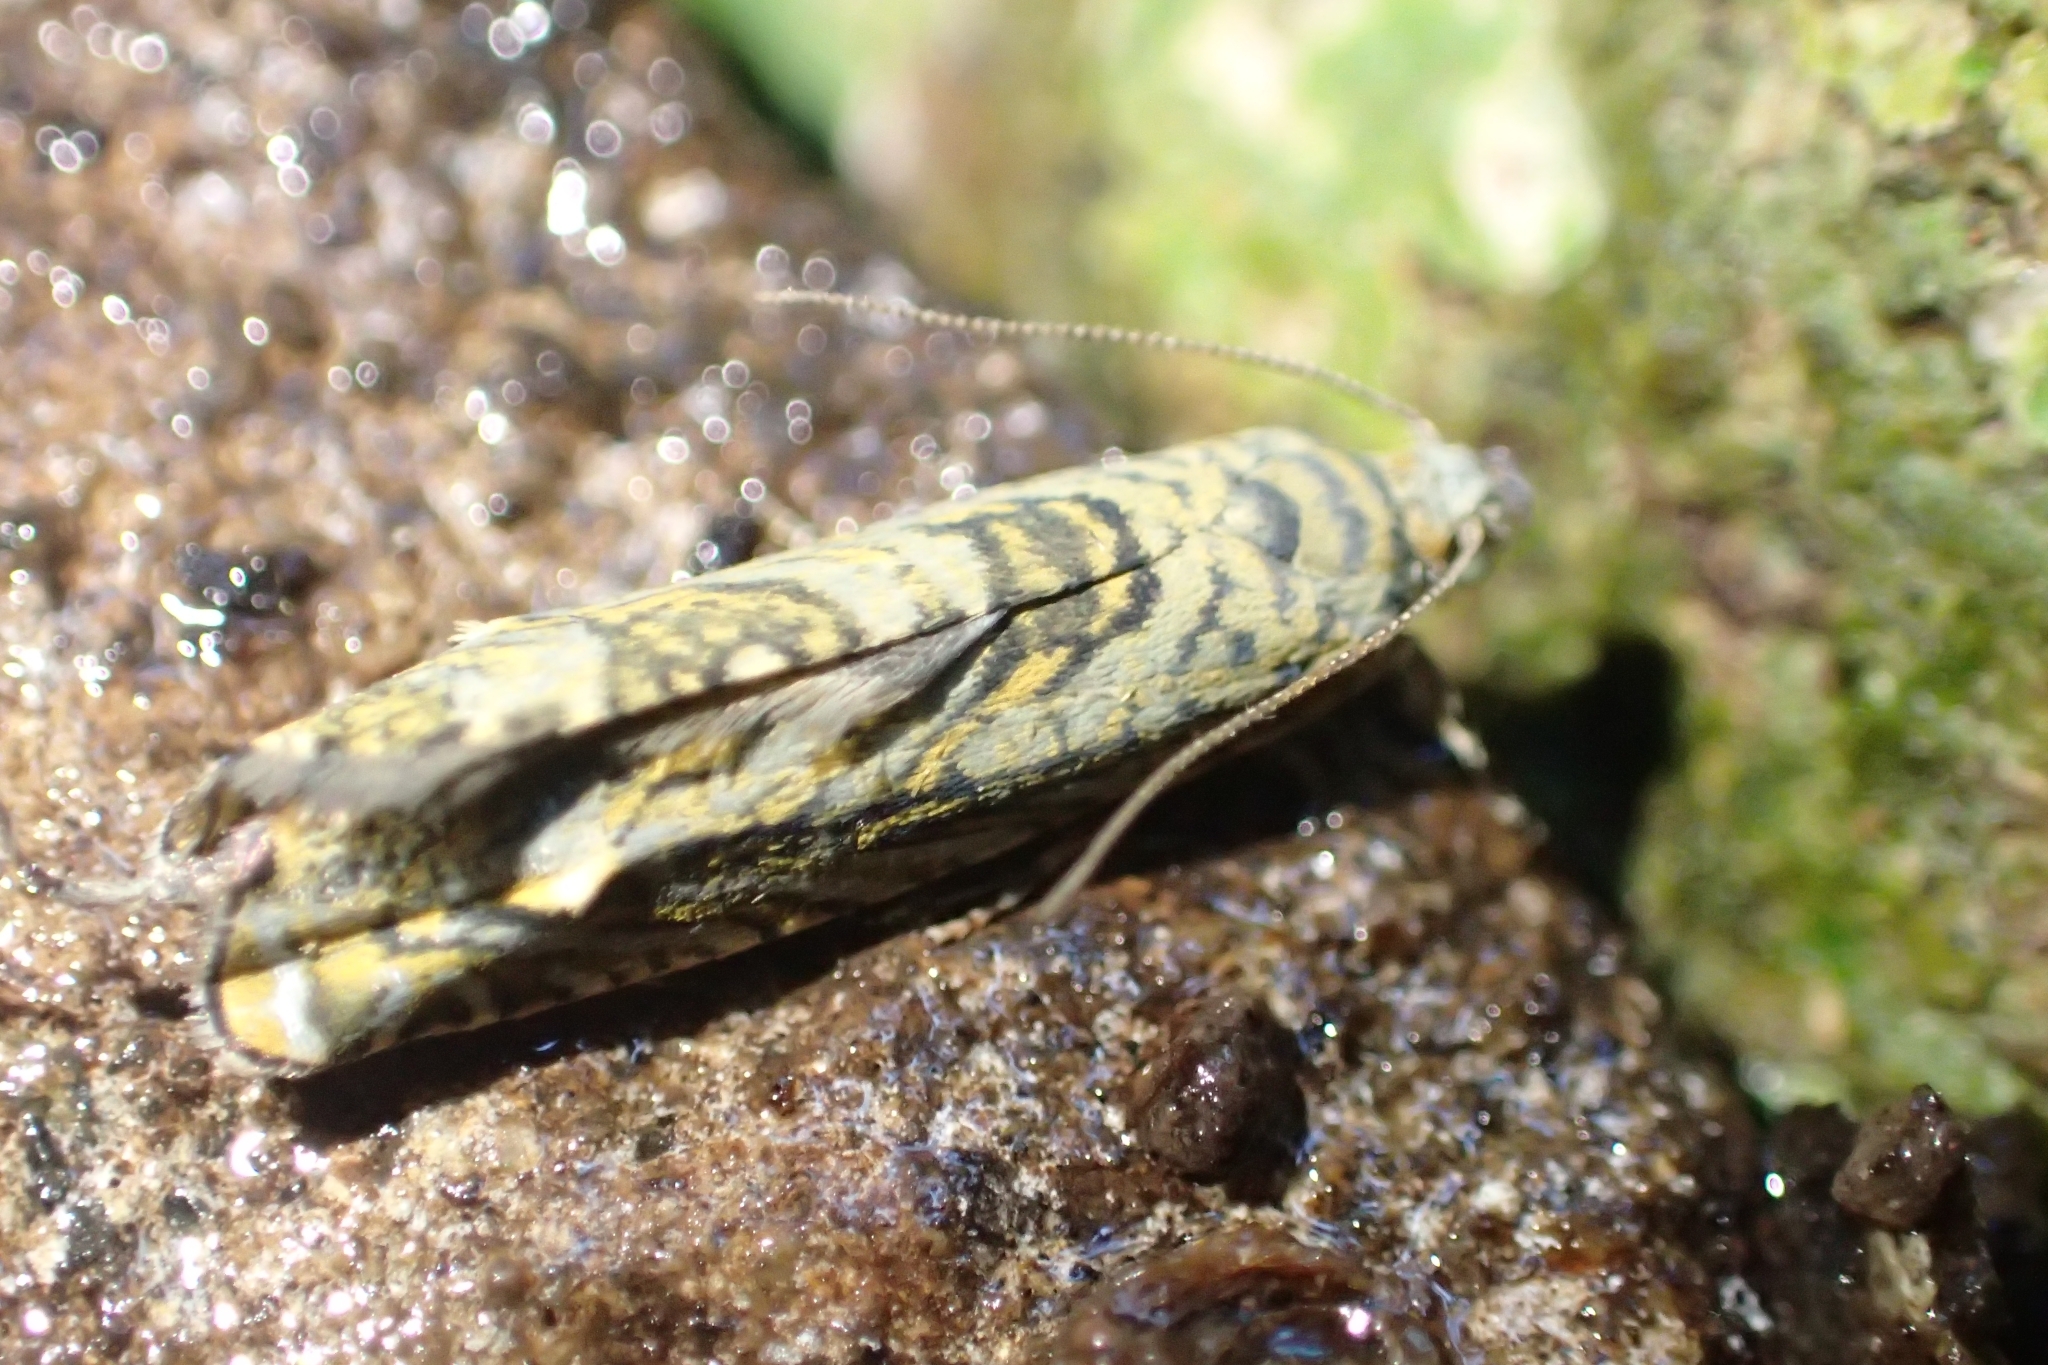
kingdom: Animalia
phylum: Arthropoda
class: Insecta
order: Lepidoptera
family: Plutellidae
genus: Doxophyrtis
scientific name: Doxophyrtis hydrocosma
